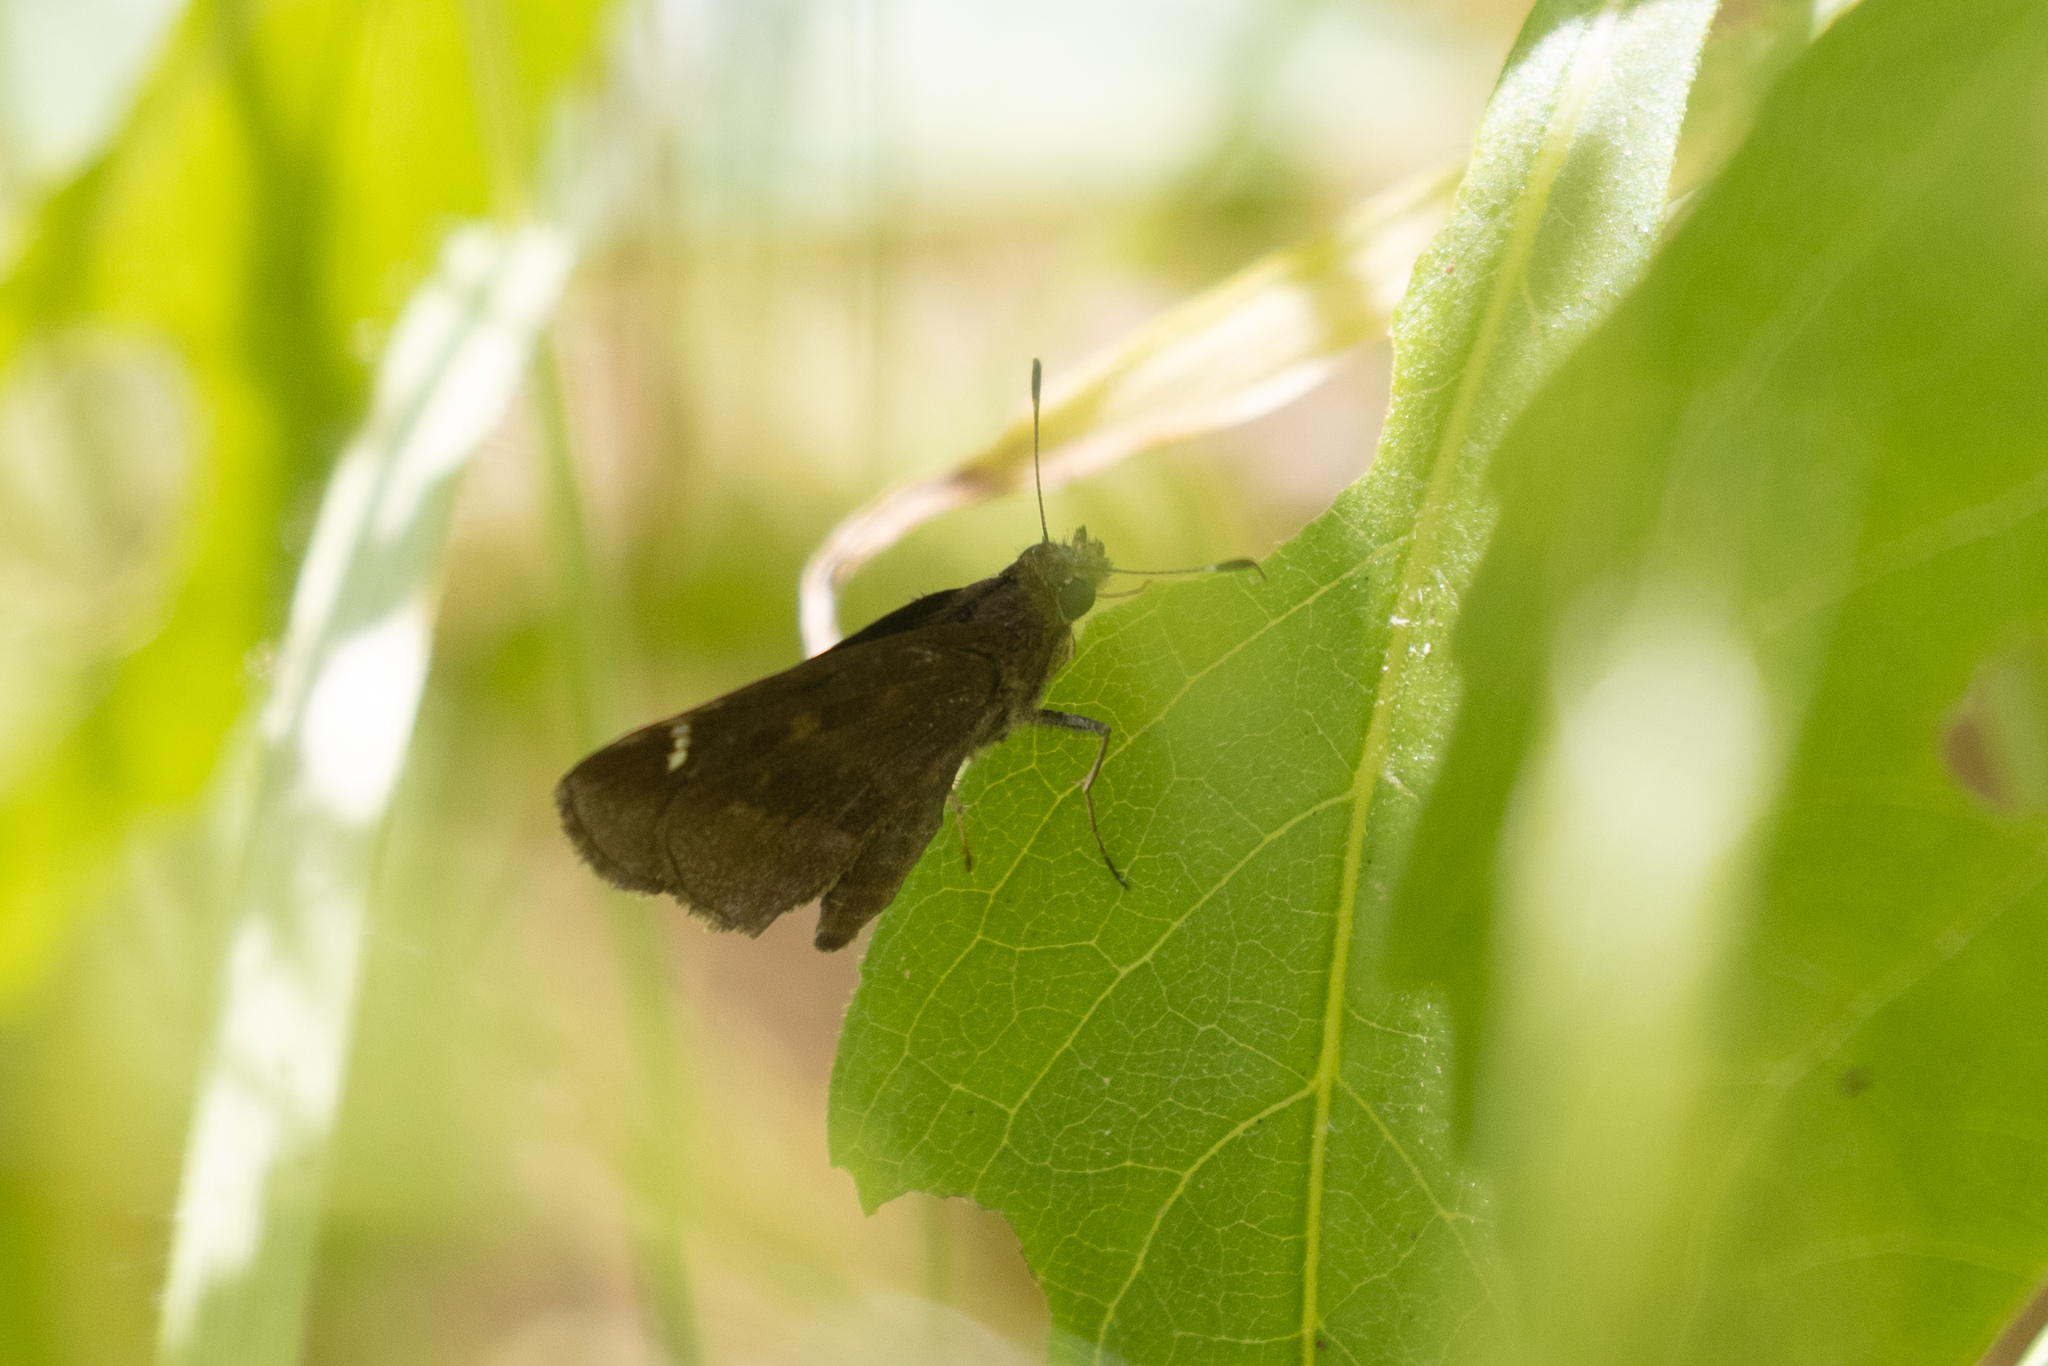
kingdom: Animalia
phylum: Arthropoda
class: Insecta
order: Lepidoptera
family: Hesperiidae
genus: Lerema
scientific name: Lerema accius
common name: Clouded skipper
